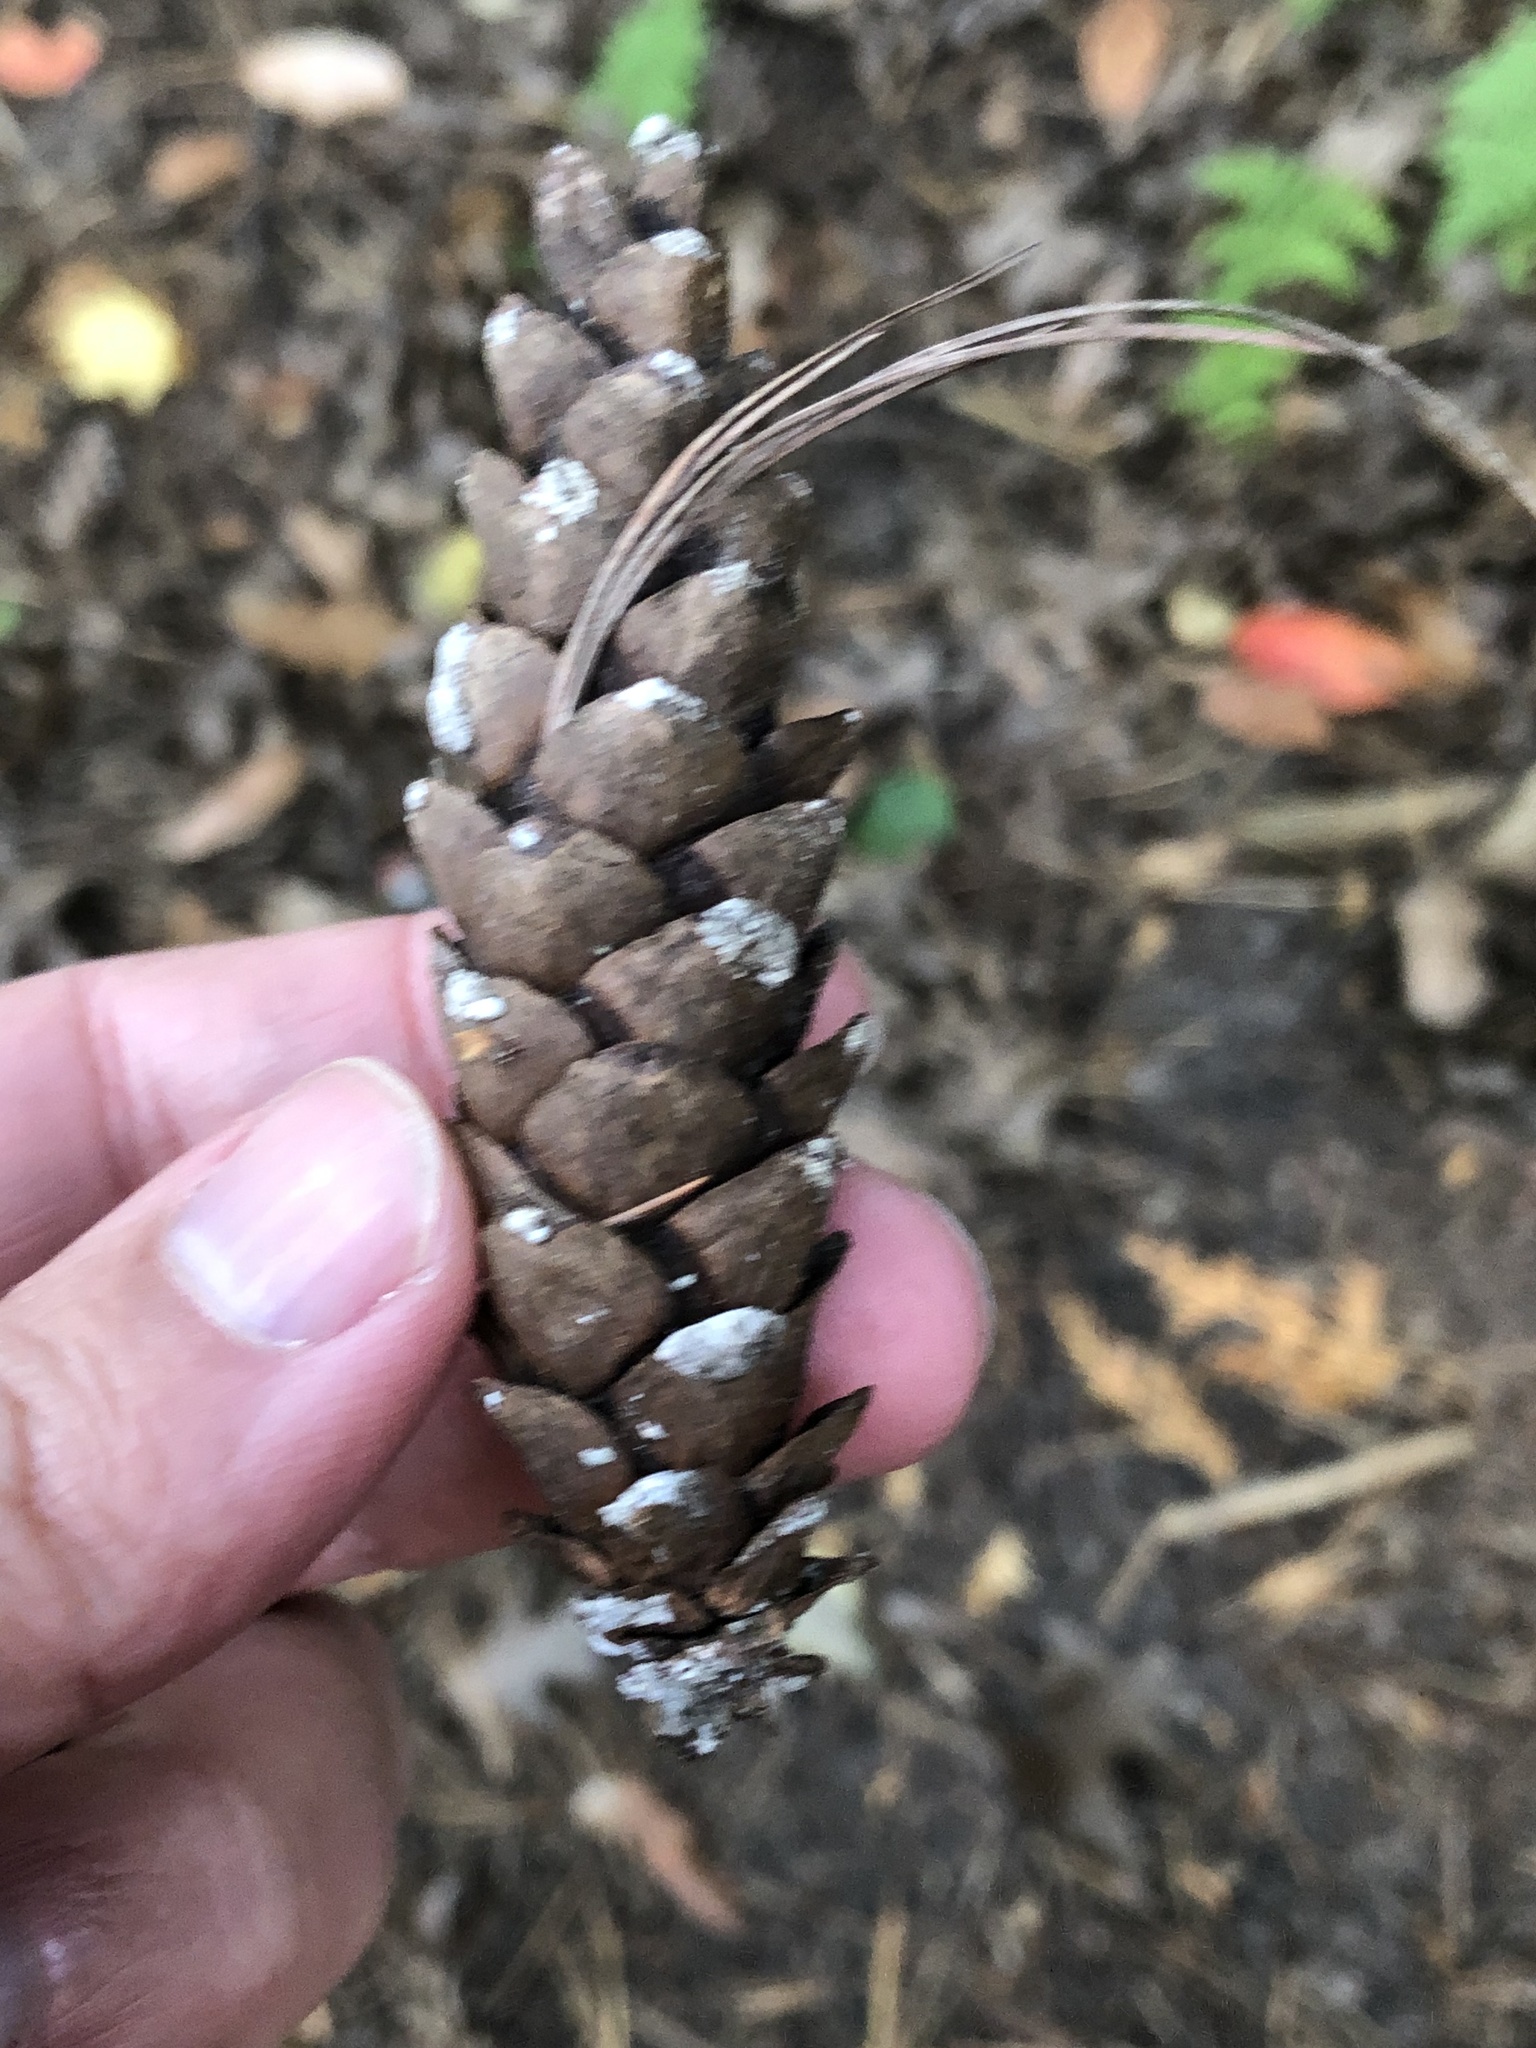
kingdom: Plantae
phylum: Tracheophyta
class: Pinopsida
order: Pinales
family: Pinaceae
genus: Pinus
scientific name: Pinus strobus
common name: Weymouth pine
